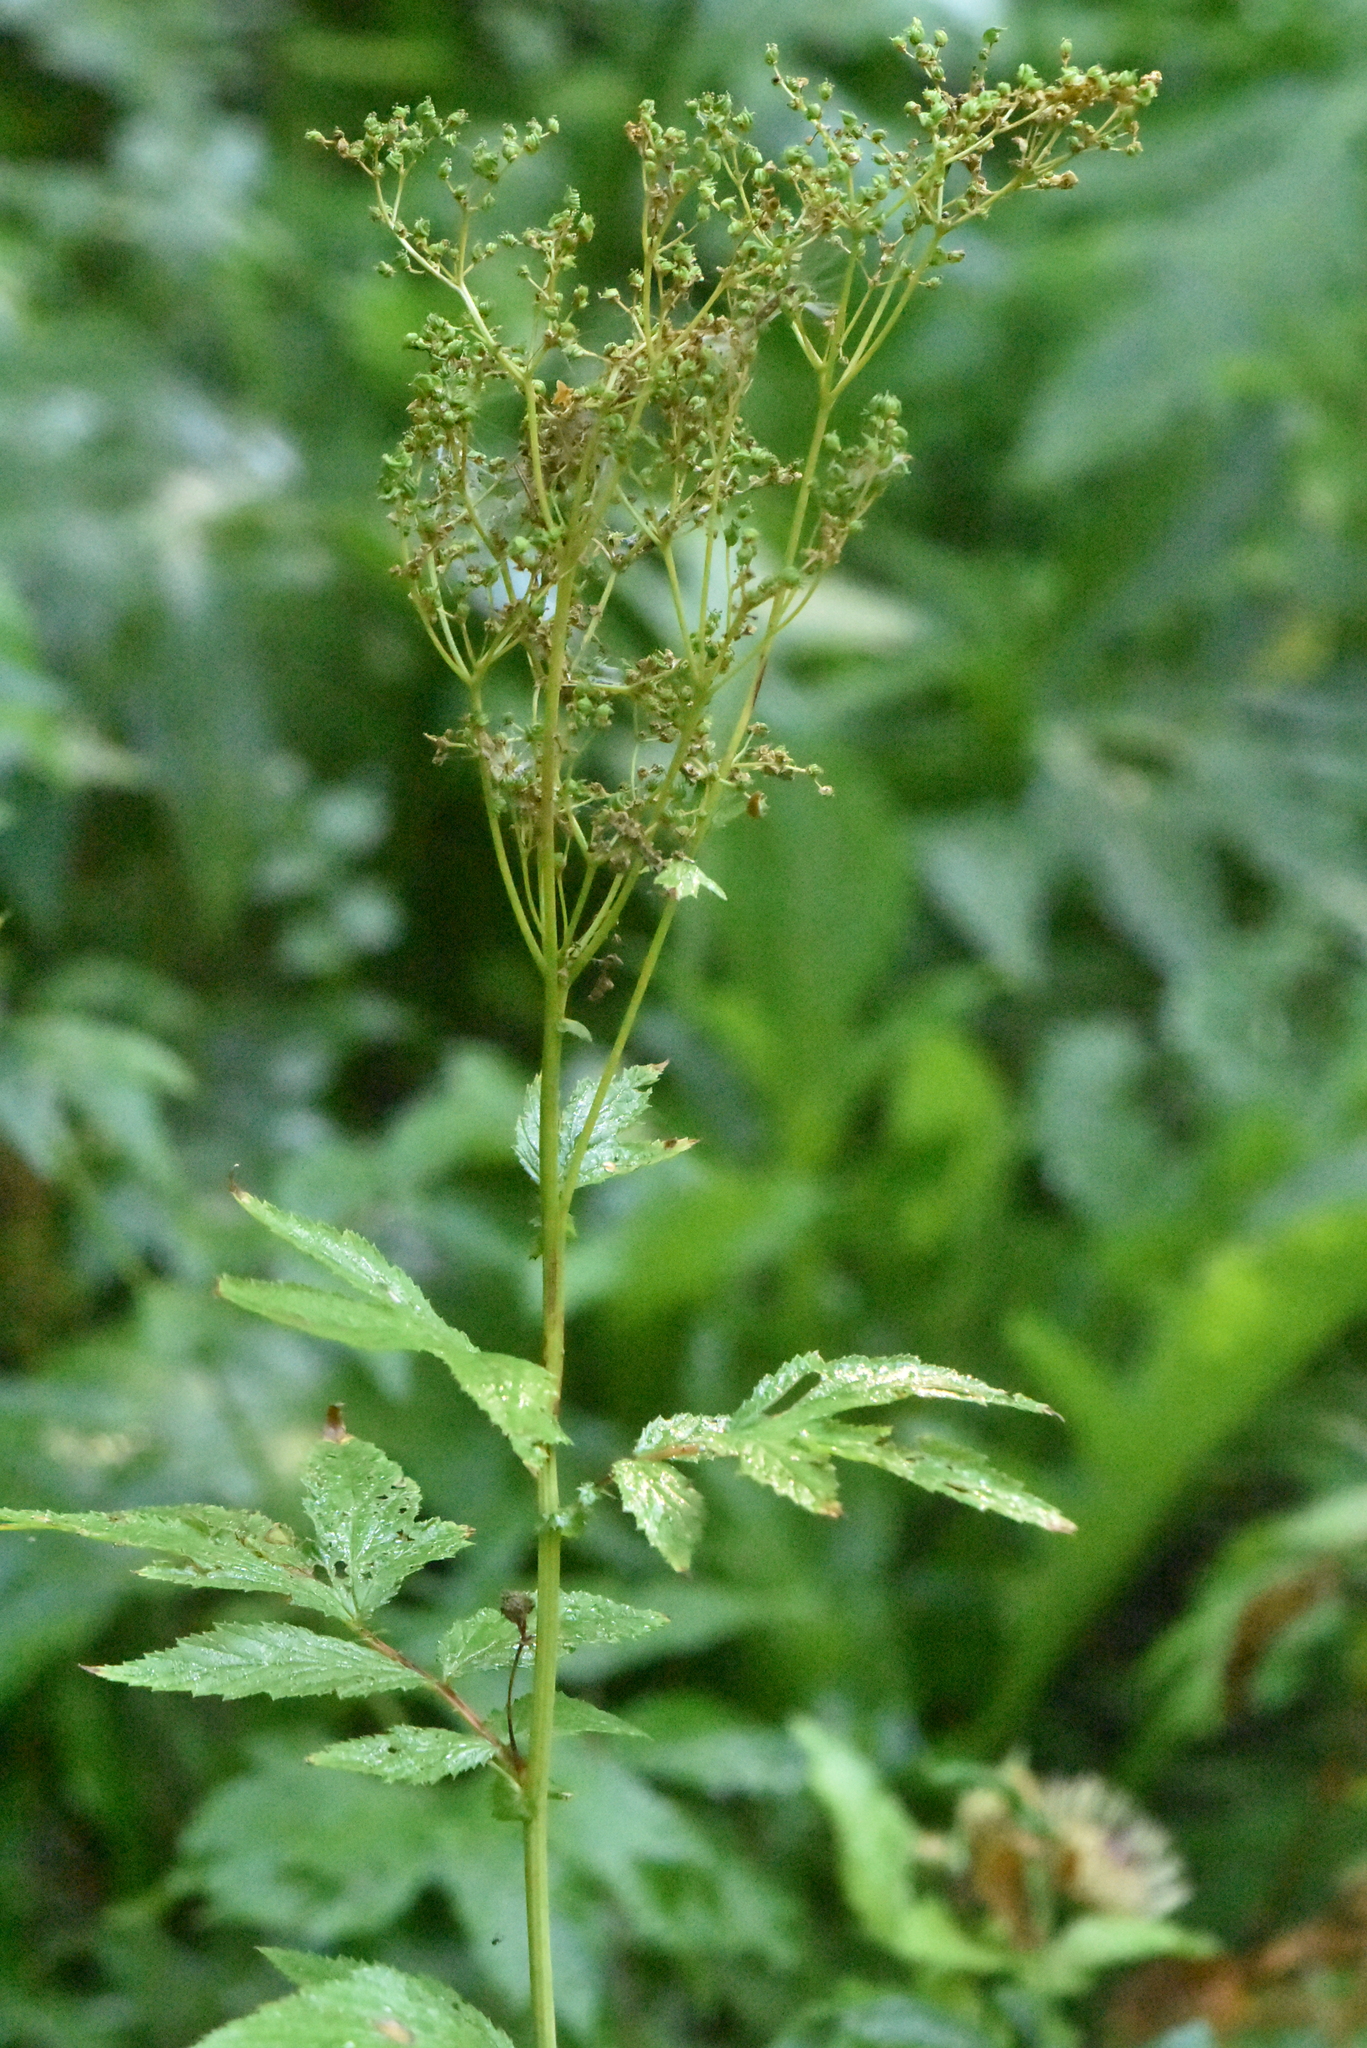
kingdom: Plantae
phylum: Tracheophyta
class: Magnoliopsida
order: Rosales
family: Rosaceae
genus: Filipendula
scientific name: Filipendula ulmaria
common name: Meadowsweet
